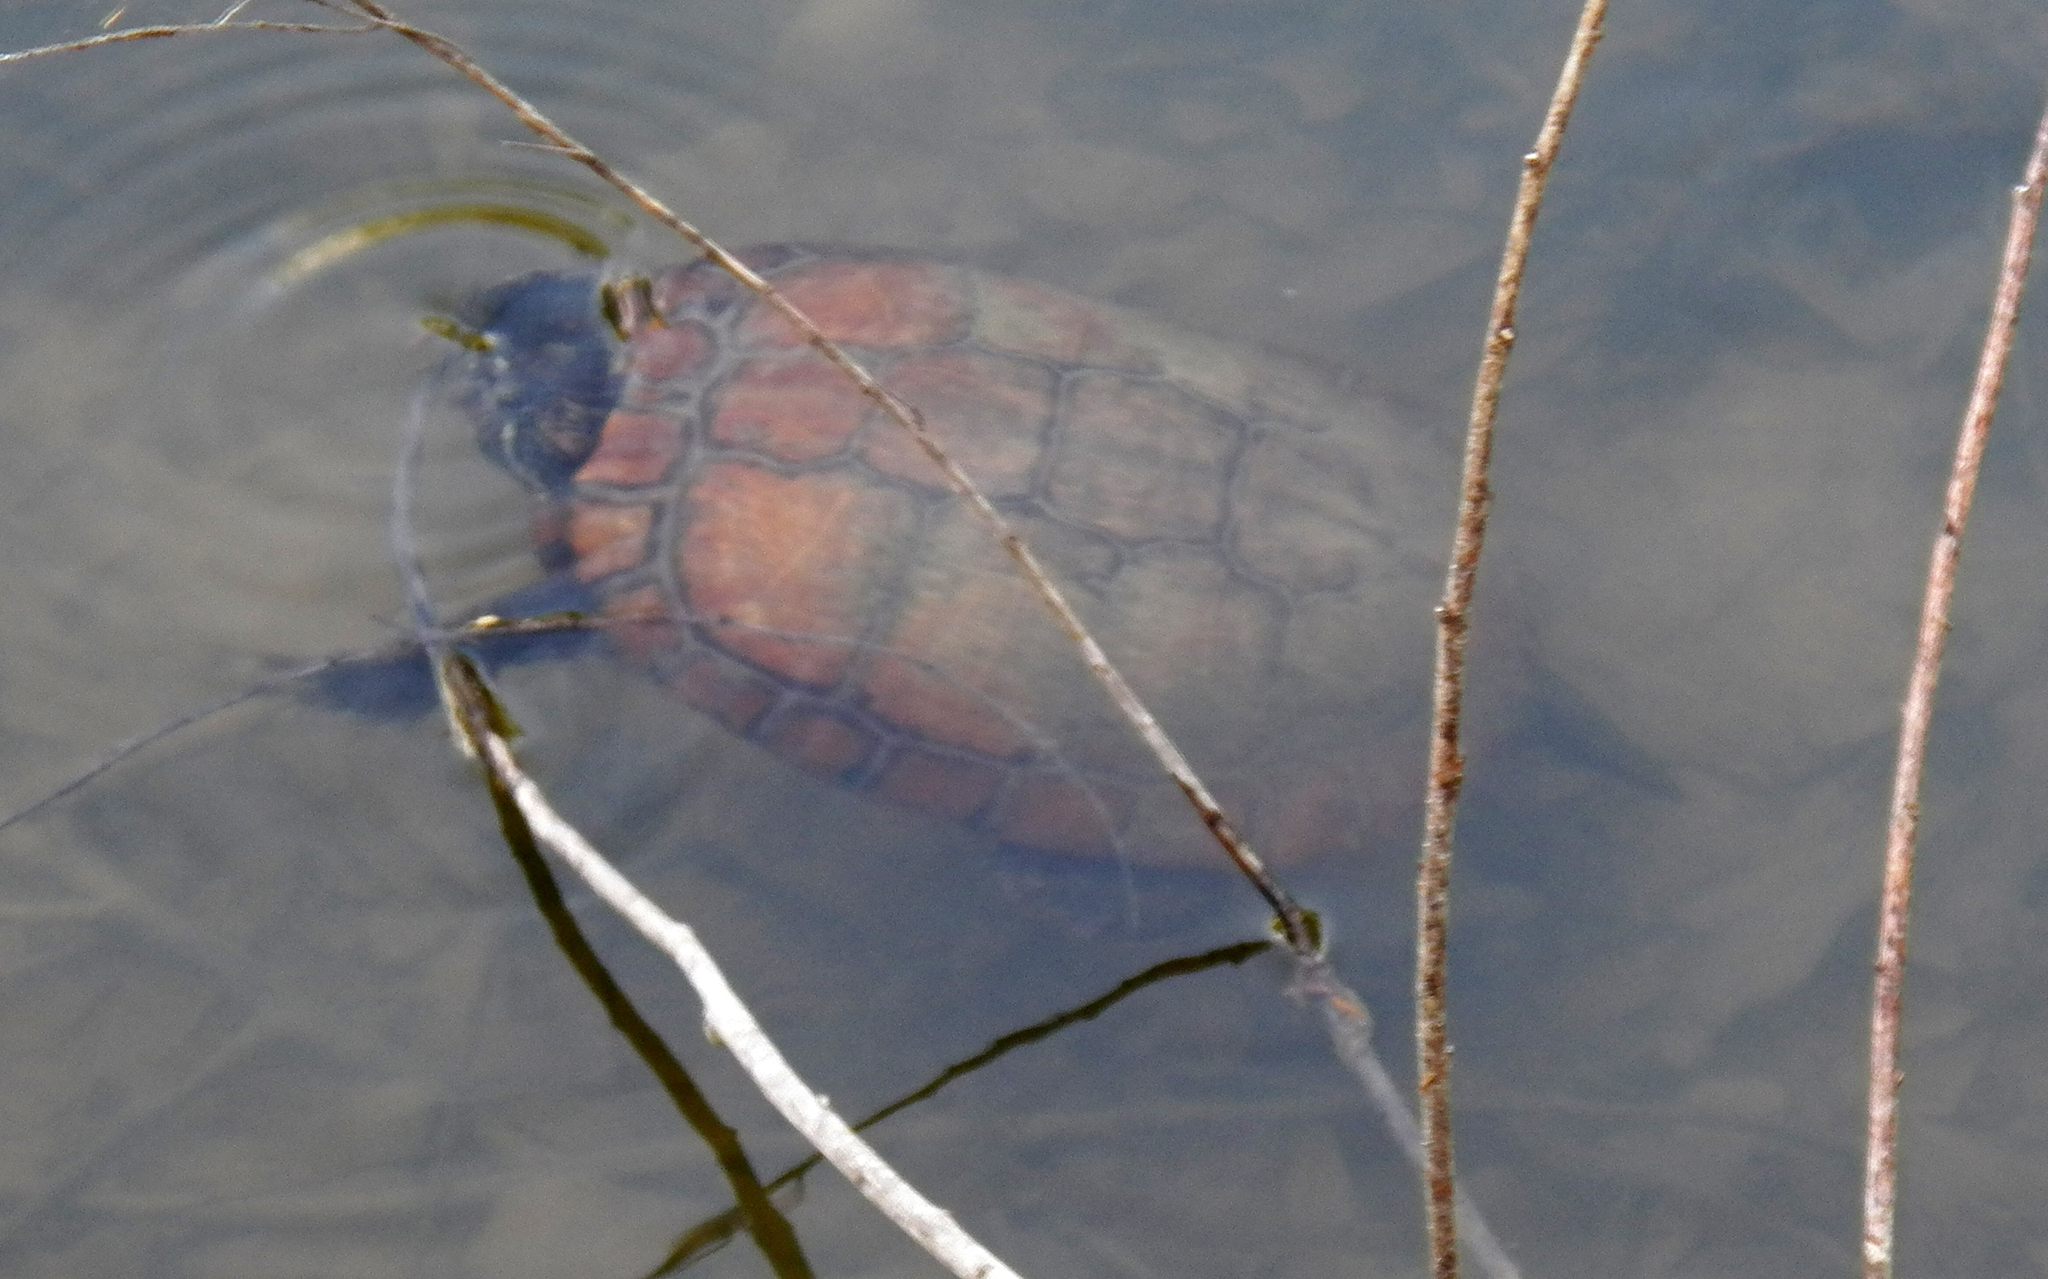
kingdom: Animalia
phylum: Chordata
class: Testudines
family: Emydidae
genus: Trachemys
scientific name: Trachemys scripta
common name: Slider
